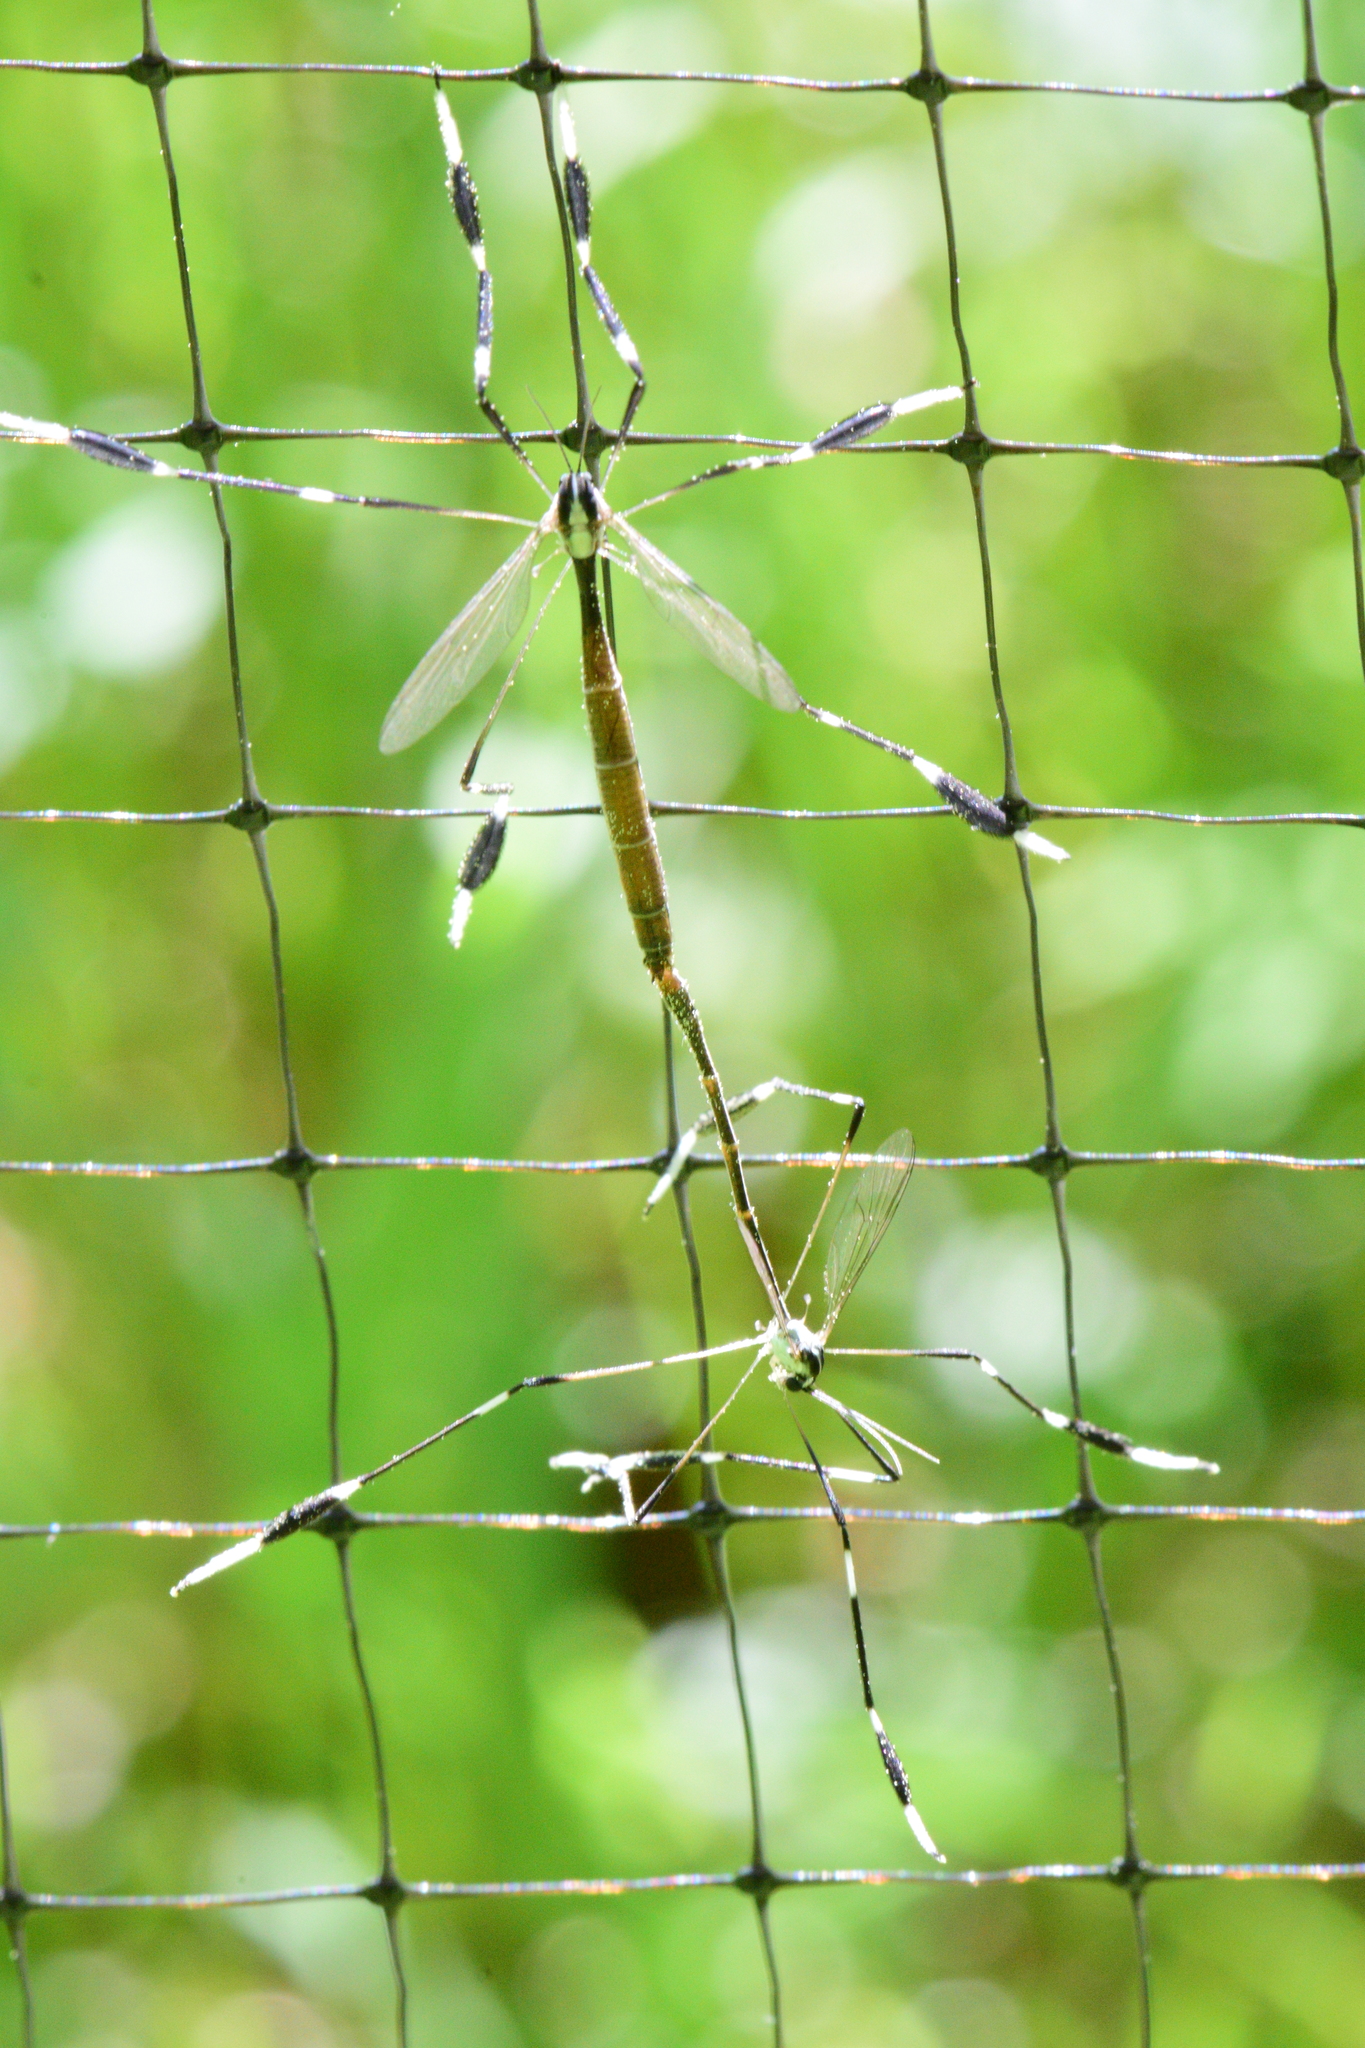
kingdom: Animalia
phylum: Arthropoda
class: Insecta
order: Diptera
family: Ptychopteridae
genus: Bittacomorpha
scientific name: Bittacomorpha clavipes
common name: Eastern phantom crane fly
